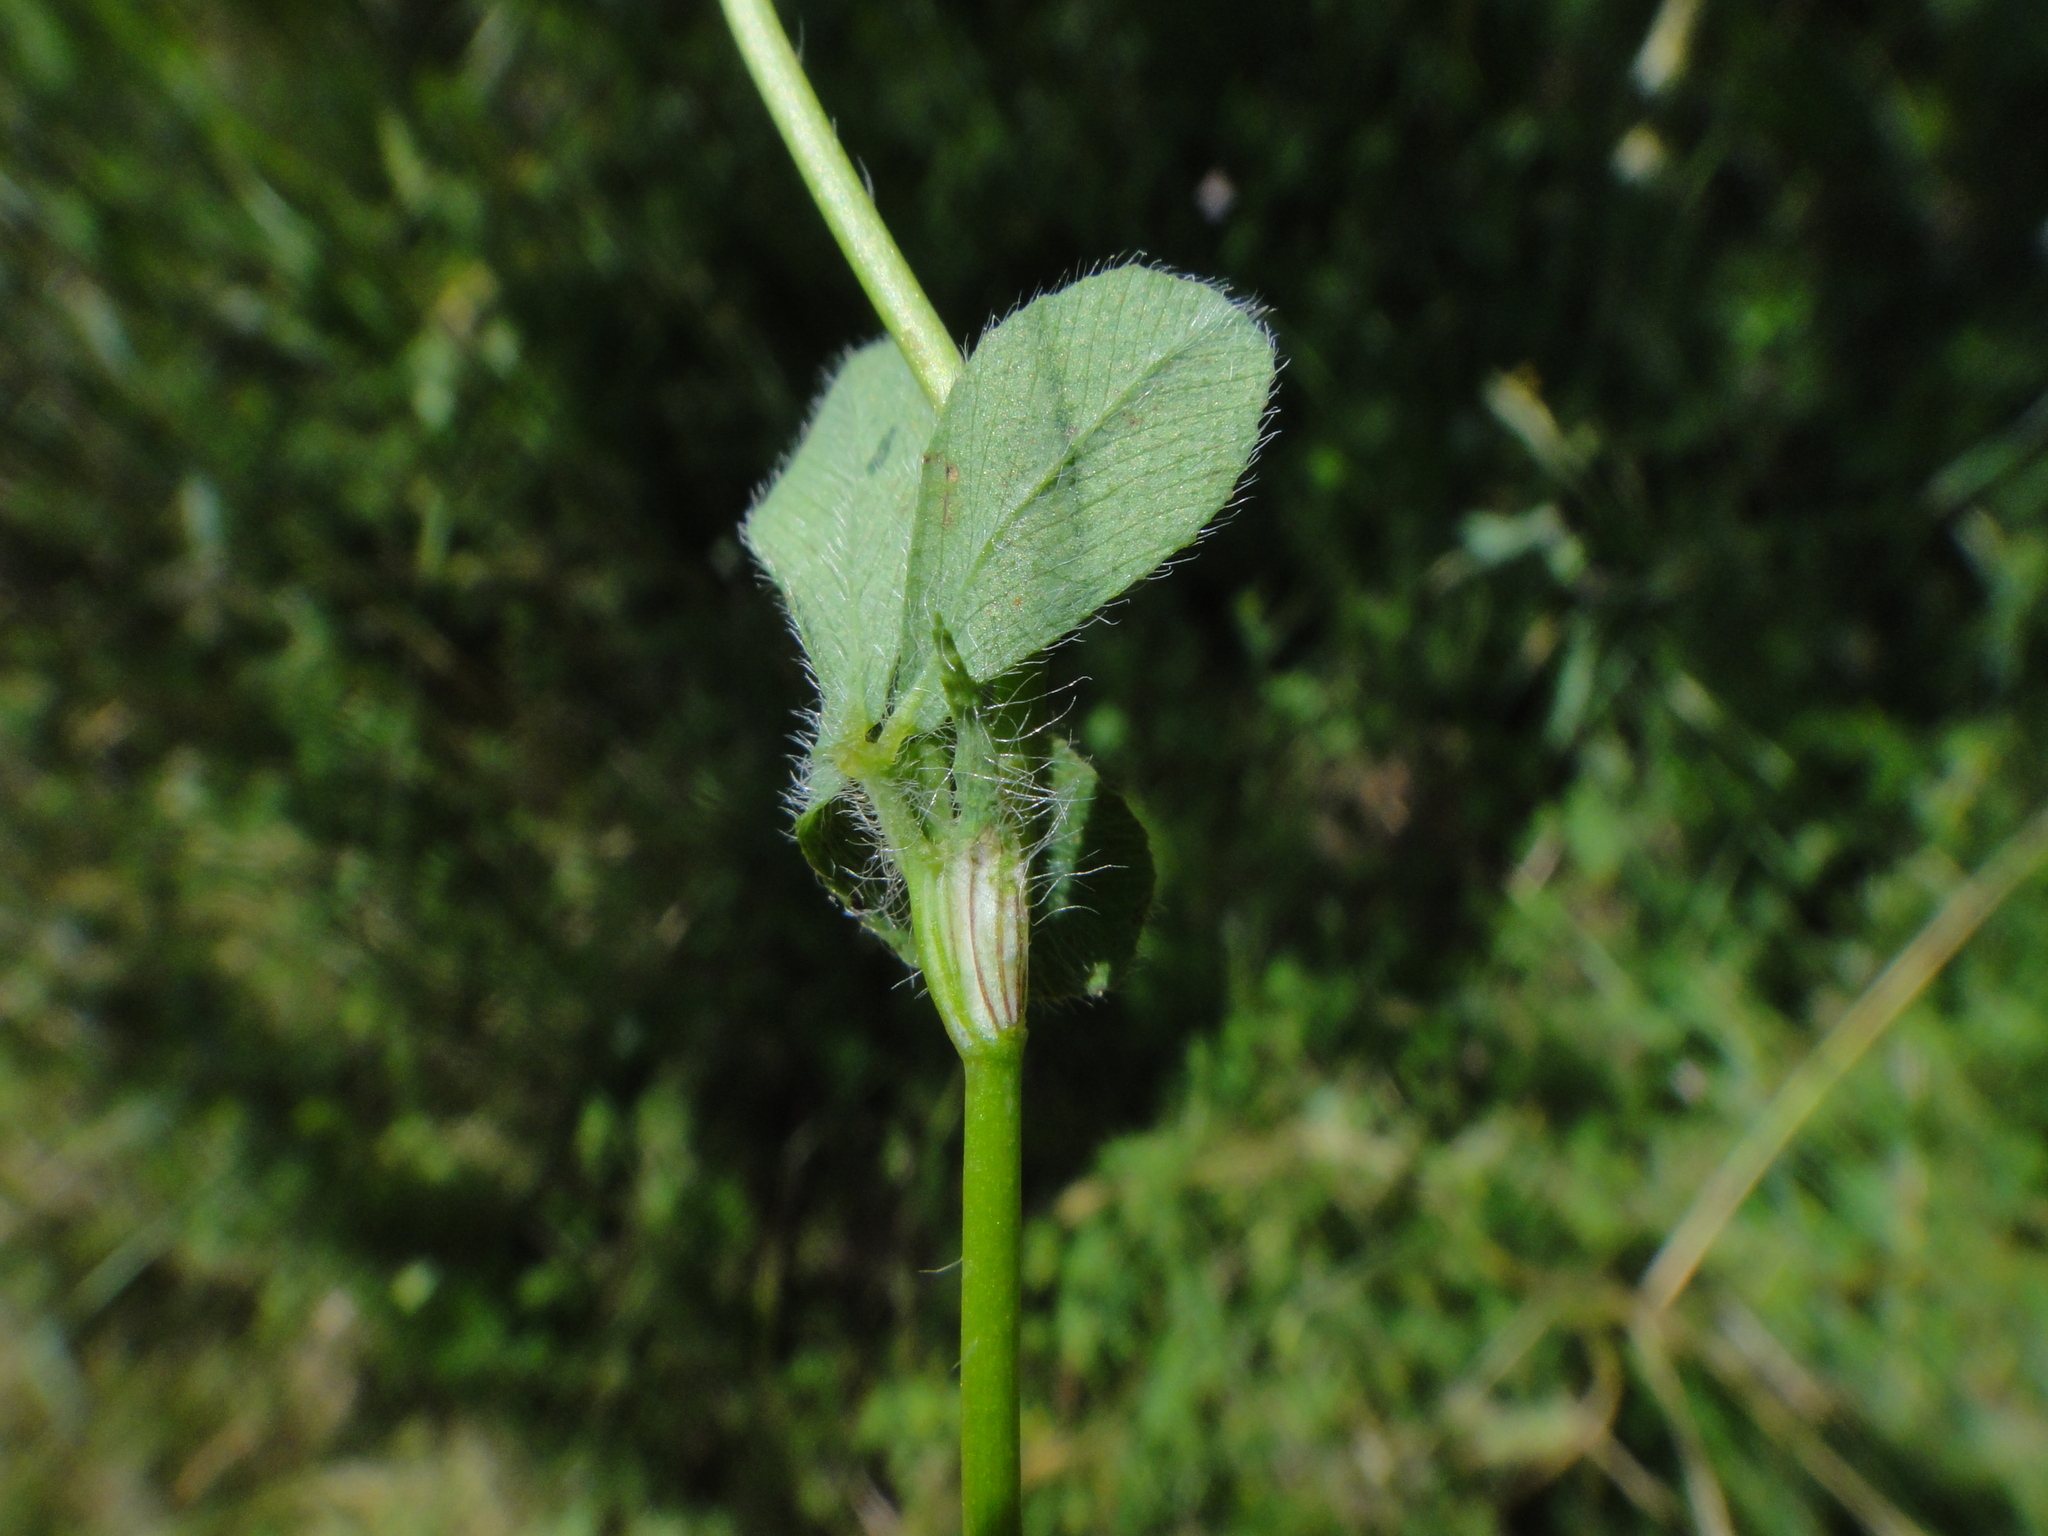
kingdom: Plantae
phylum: Tracheophyta
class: Magnoliopsida
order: Fabales
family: Fabaceae
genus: Trifolium
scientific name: Trifolium diffusum
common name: Diffuse clover
